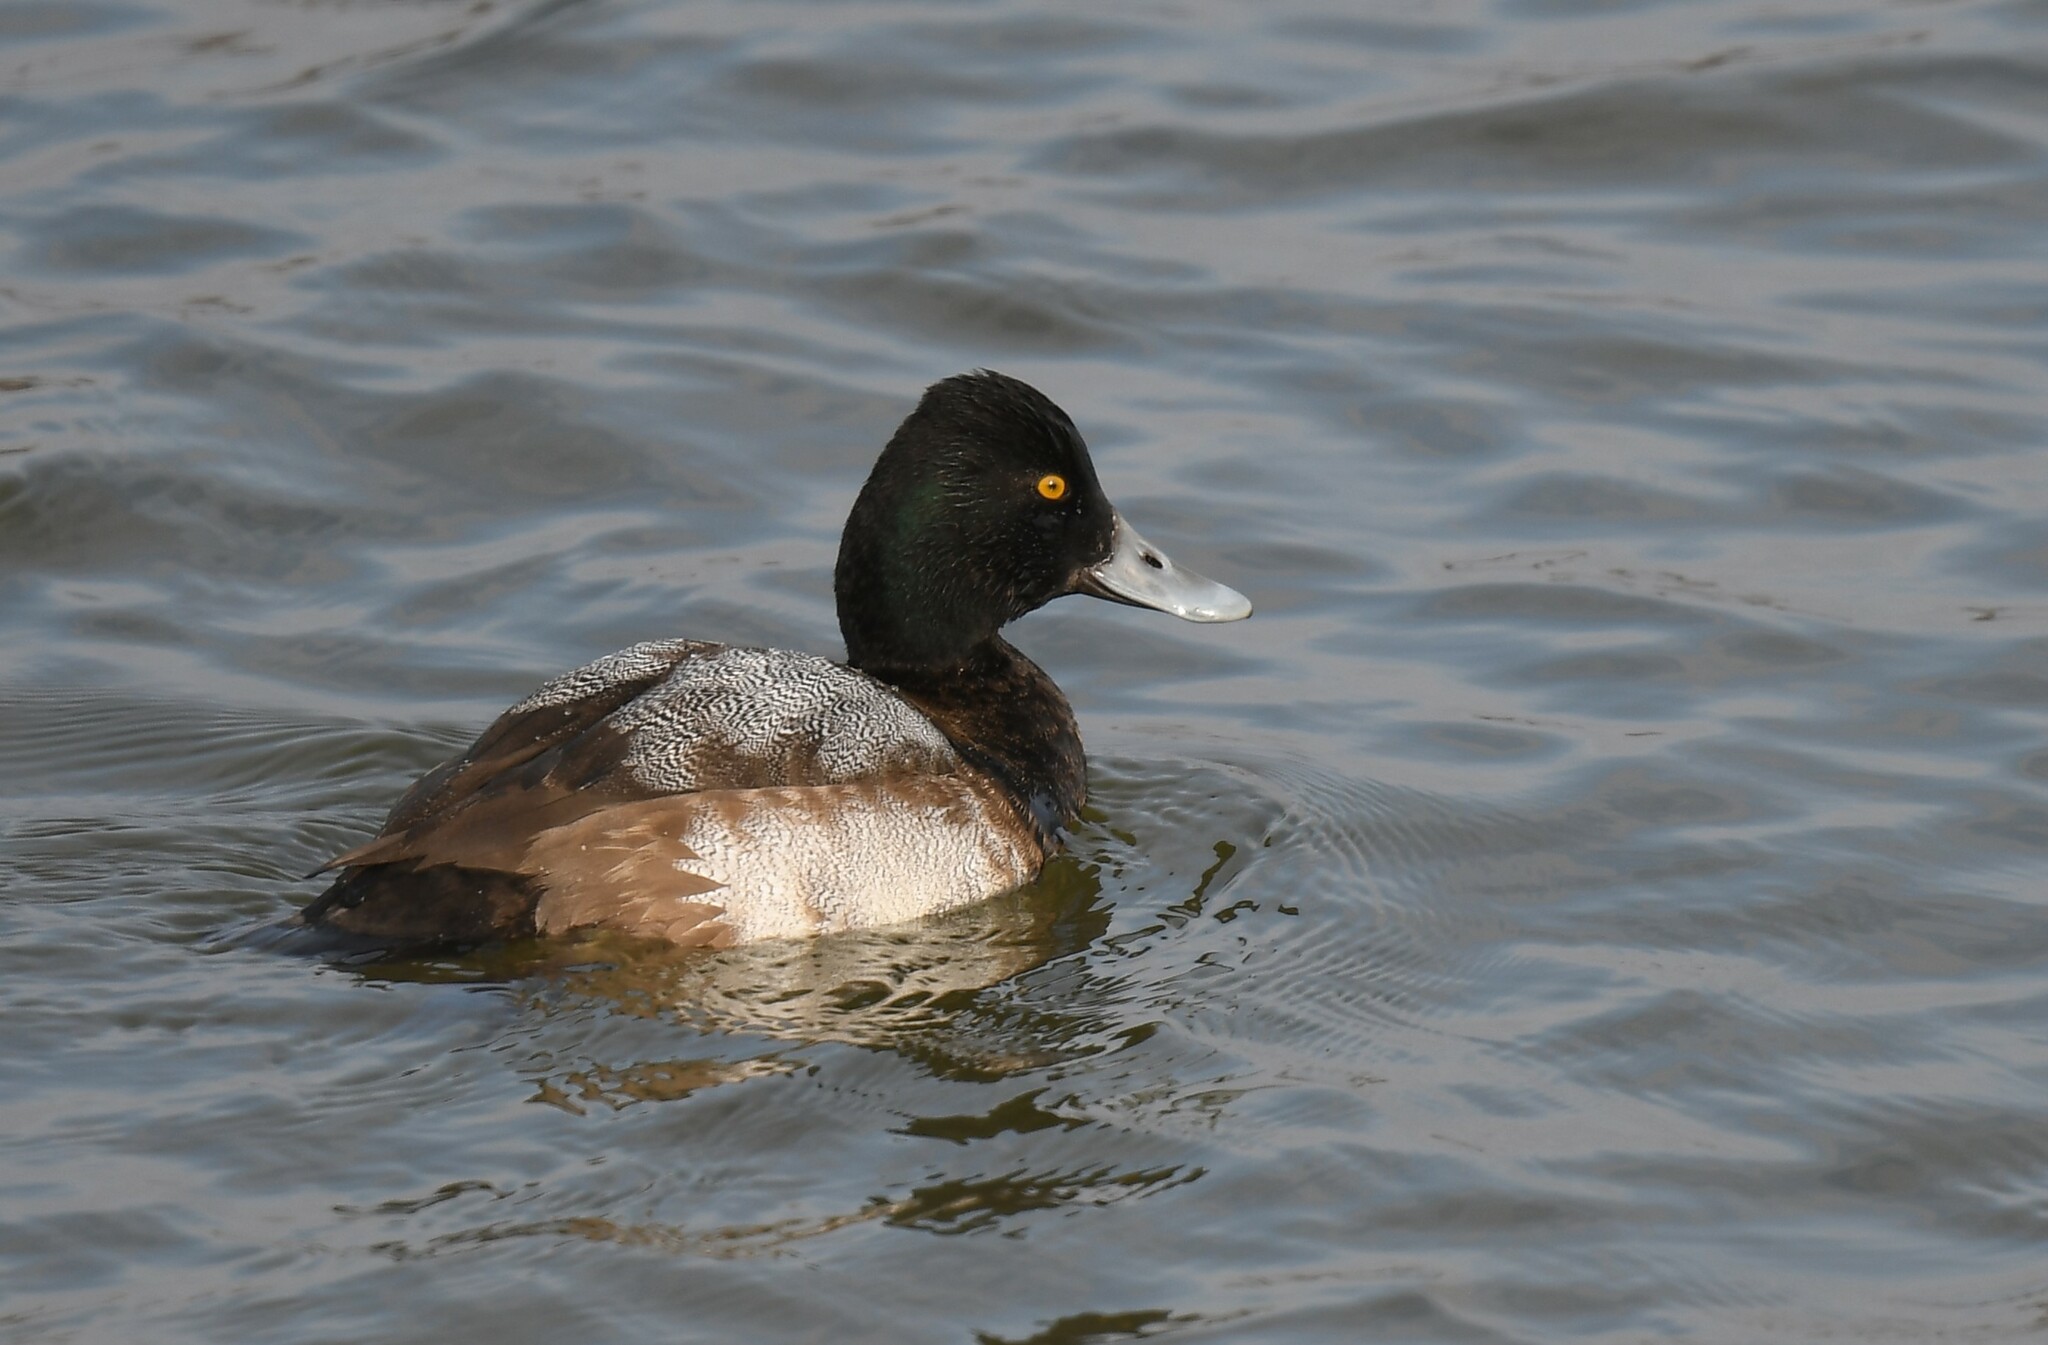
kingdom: Animalia
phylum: Chordata
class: Aves
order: Anseriformes
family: Anatidae
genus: Aythya
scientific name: Aythya affinis
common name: Lesser scaup
